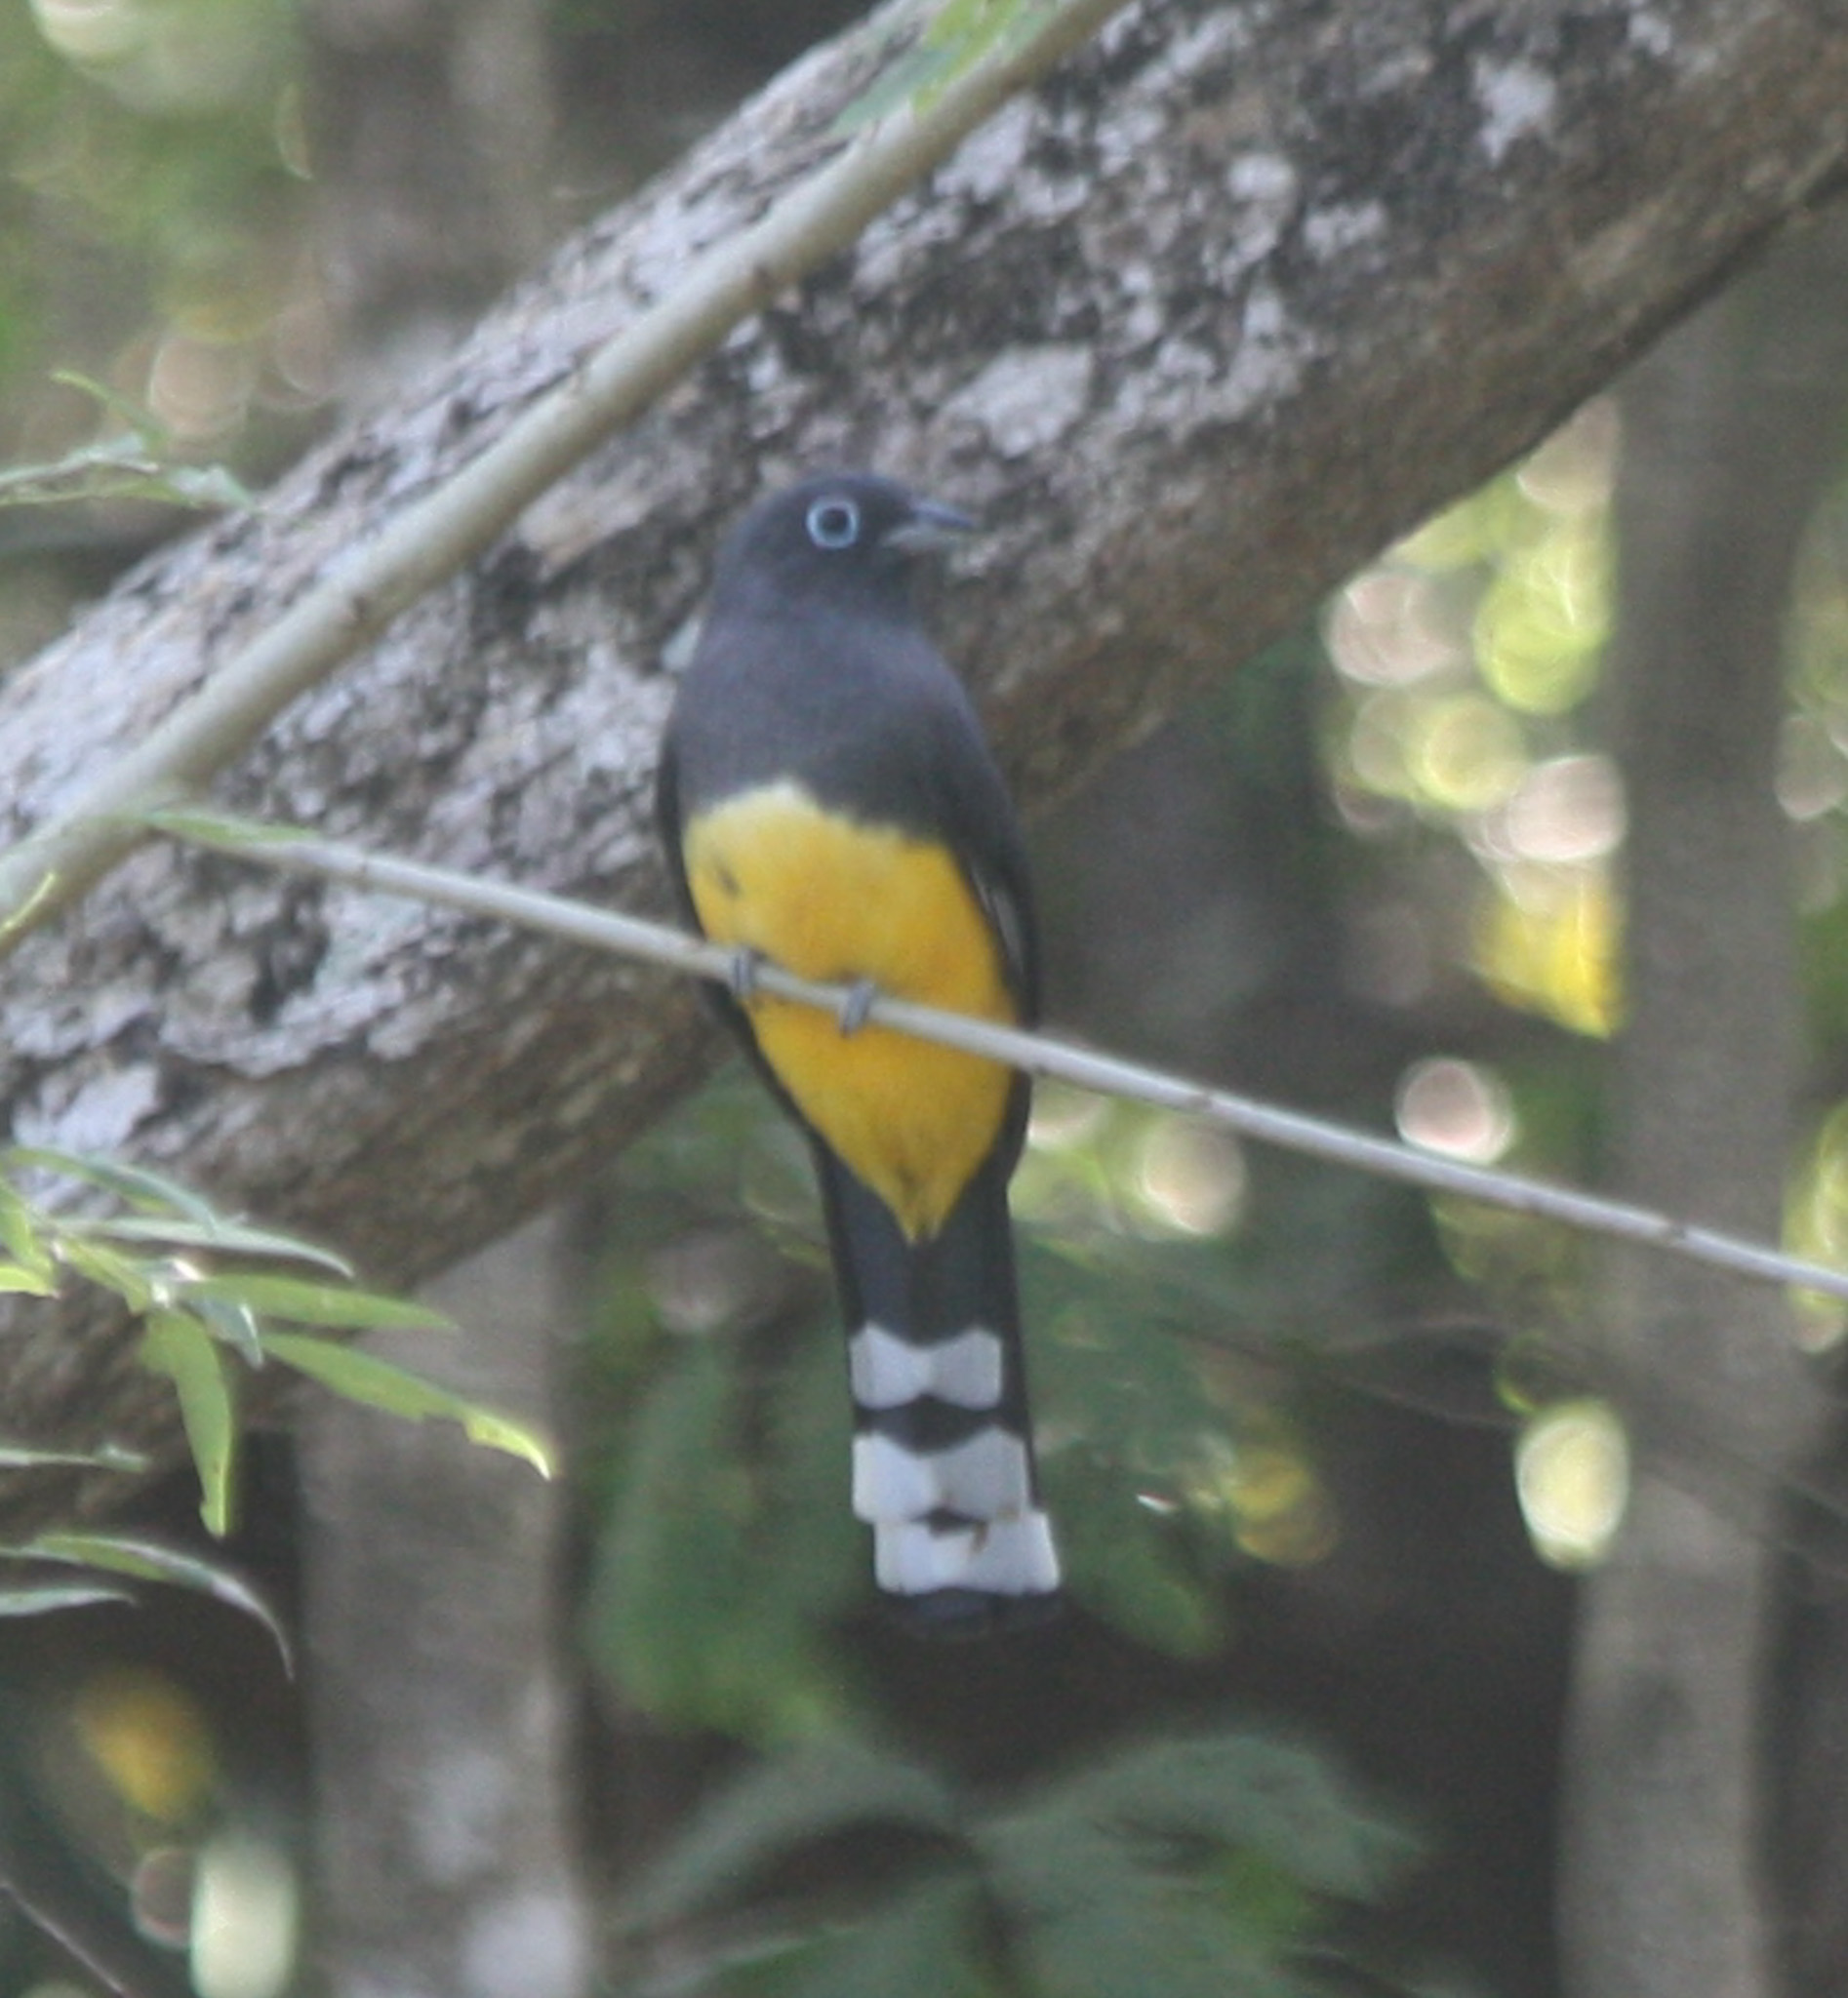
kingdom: Animalia
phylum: Chordata
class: Aves
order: Trogoniformes
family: Trogonidae
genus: Trogon
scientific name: Trogon melanocephalus
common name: Black-headed trogon
